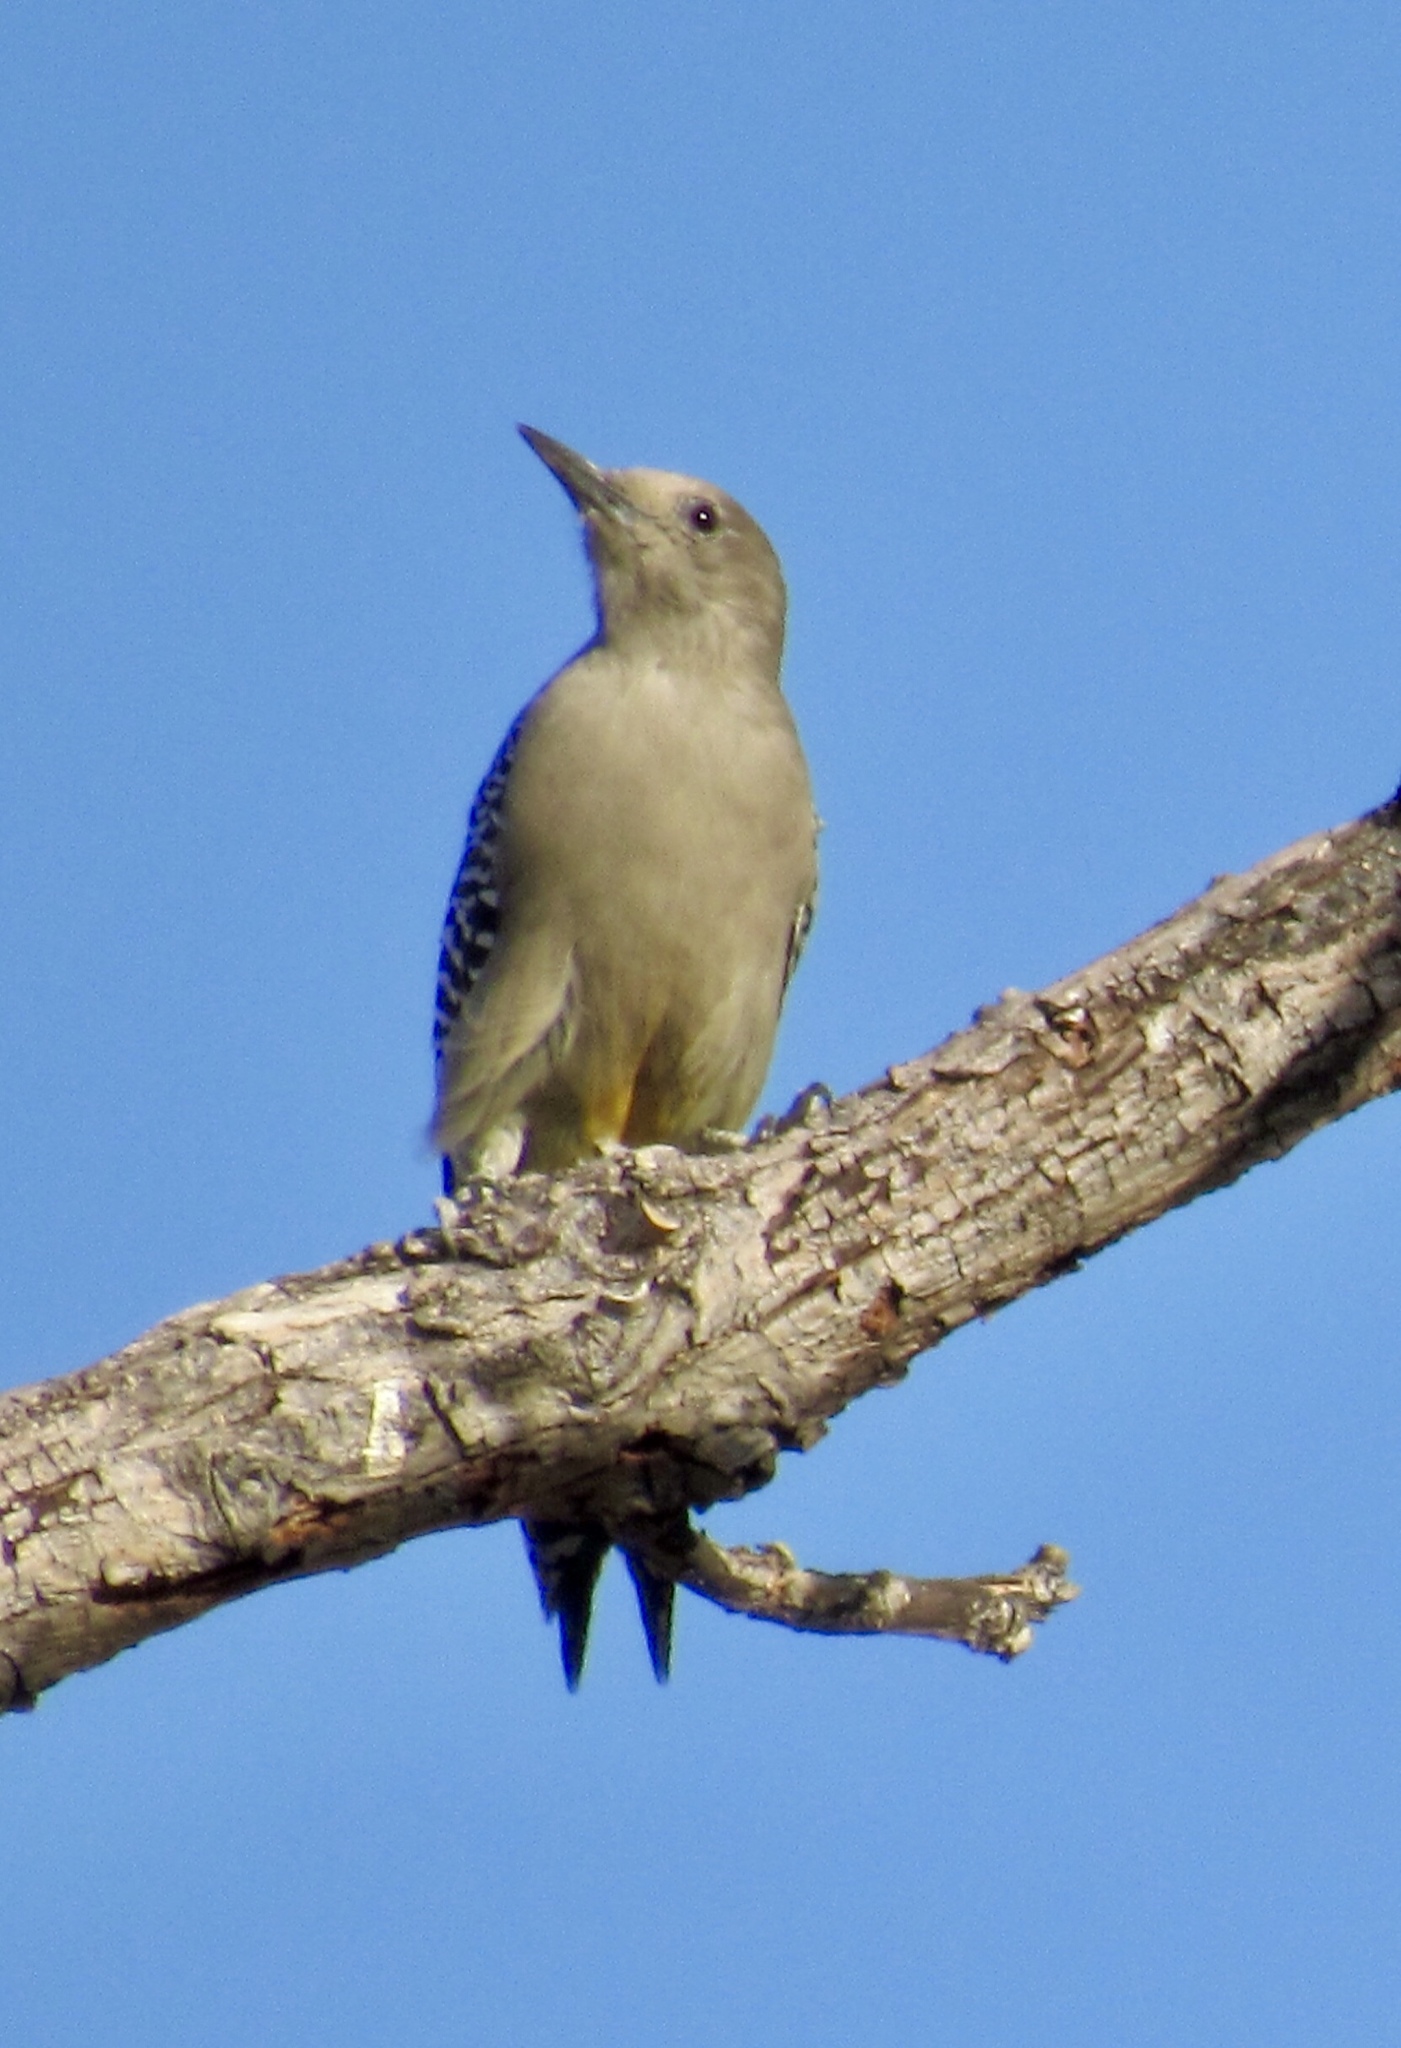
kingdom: Animalia
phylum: Chordata
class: Aves
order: Piciformes
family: Picidae
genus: Melanerpes
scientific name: Melanerpes uropygialis
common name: Gila woodpecker
